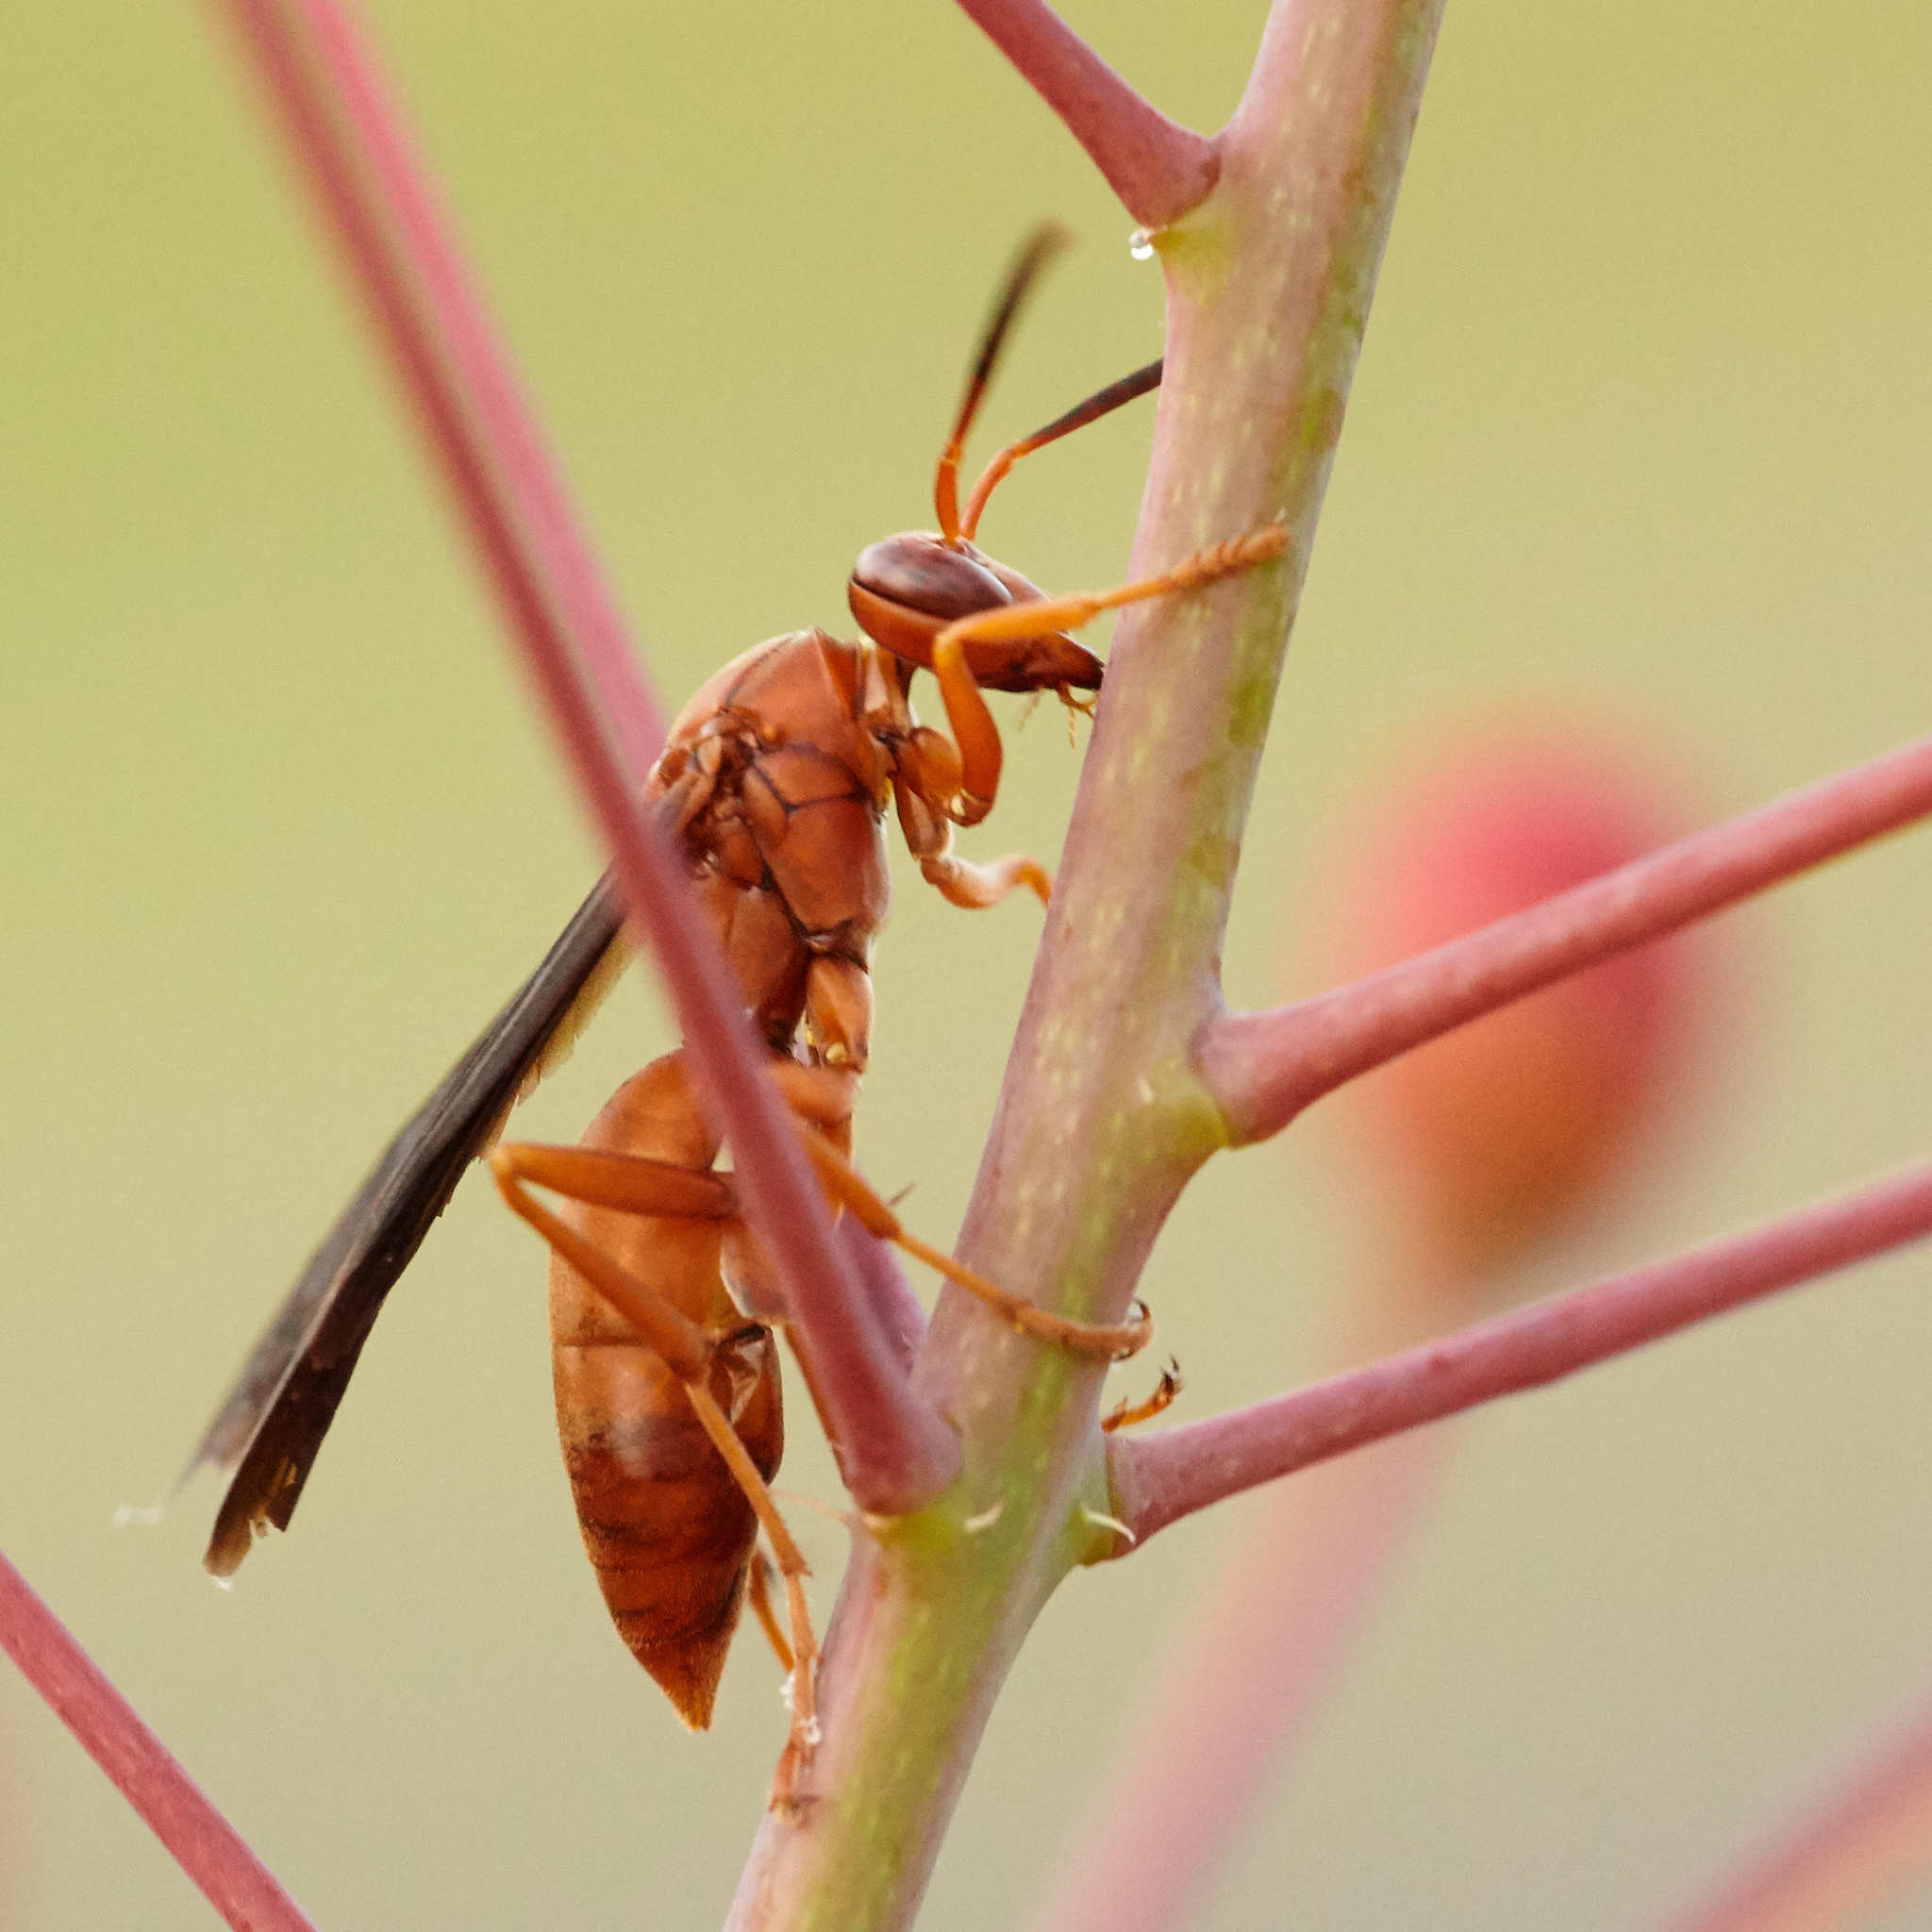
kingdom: Animalia
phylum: Arthropoda
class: Insecta
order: Hymenoptera
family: Vespidae
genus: Fuscopolistes
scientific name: Fuscopolistes
